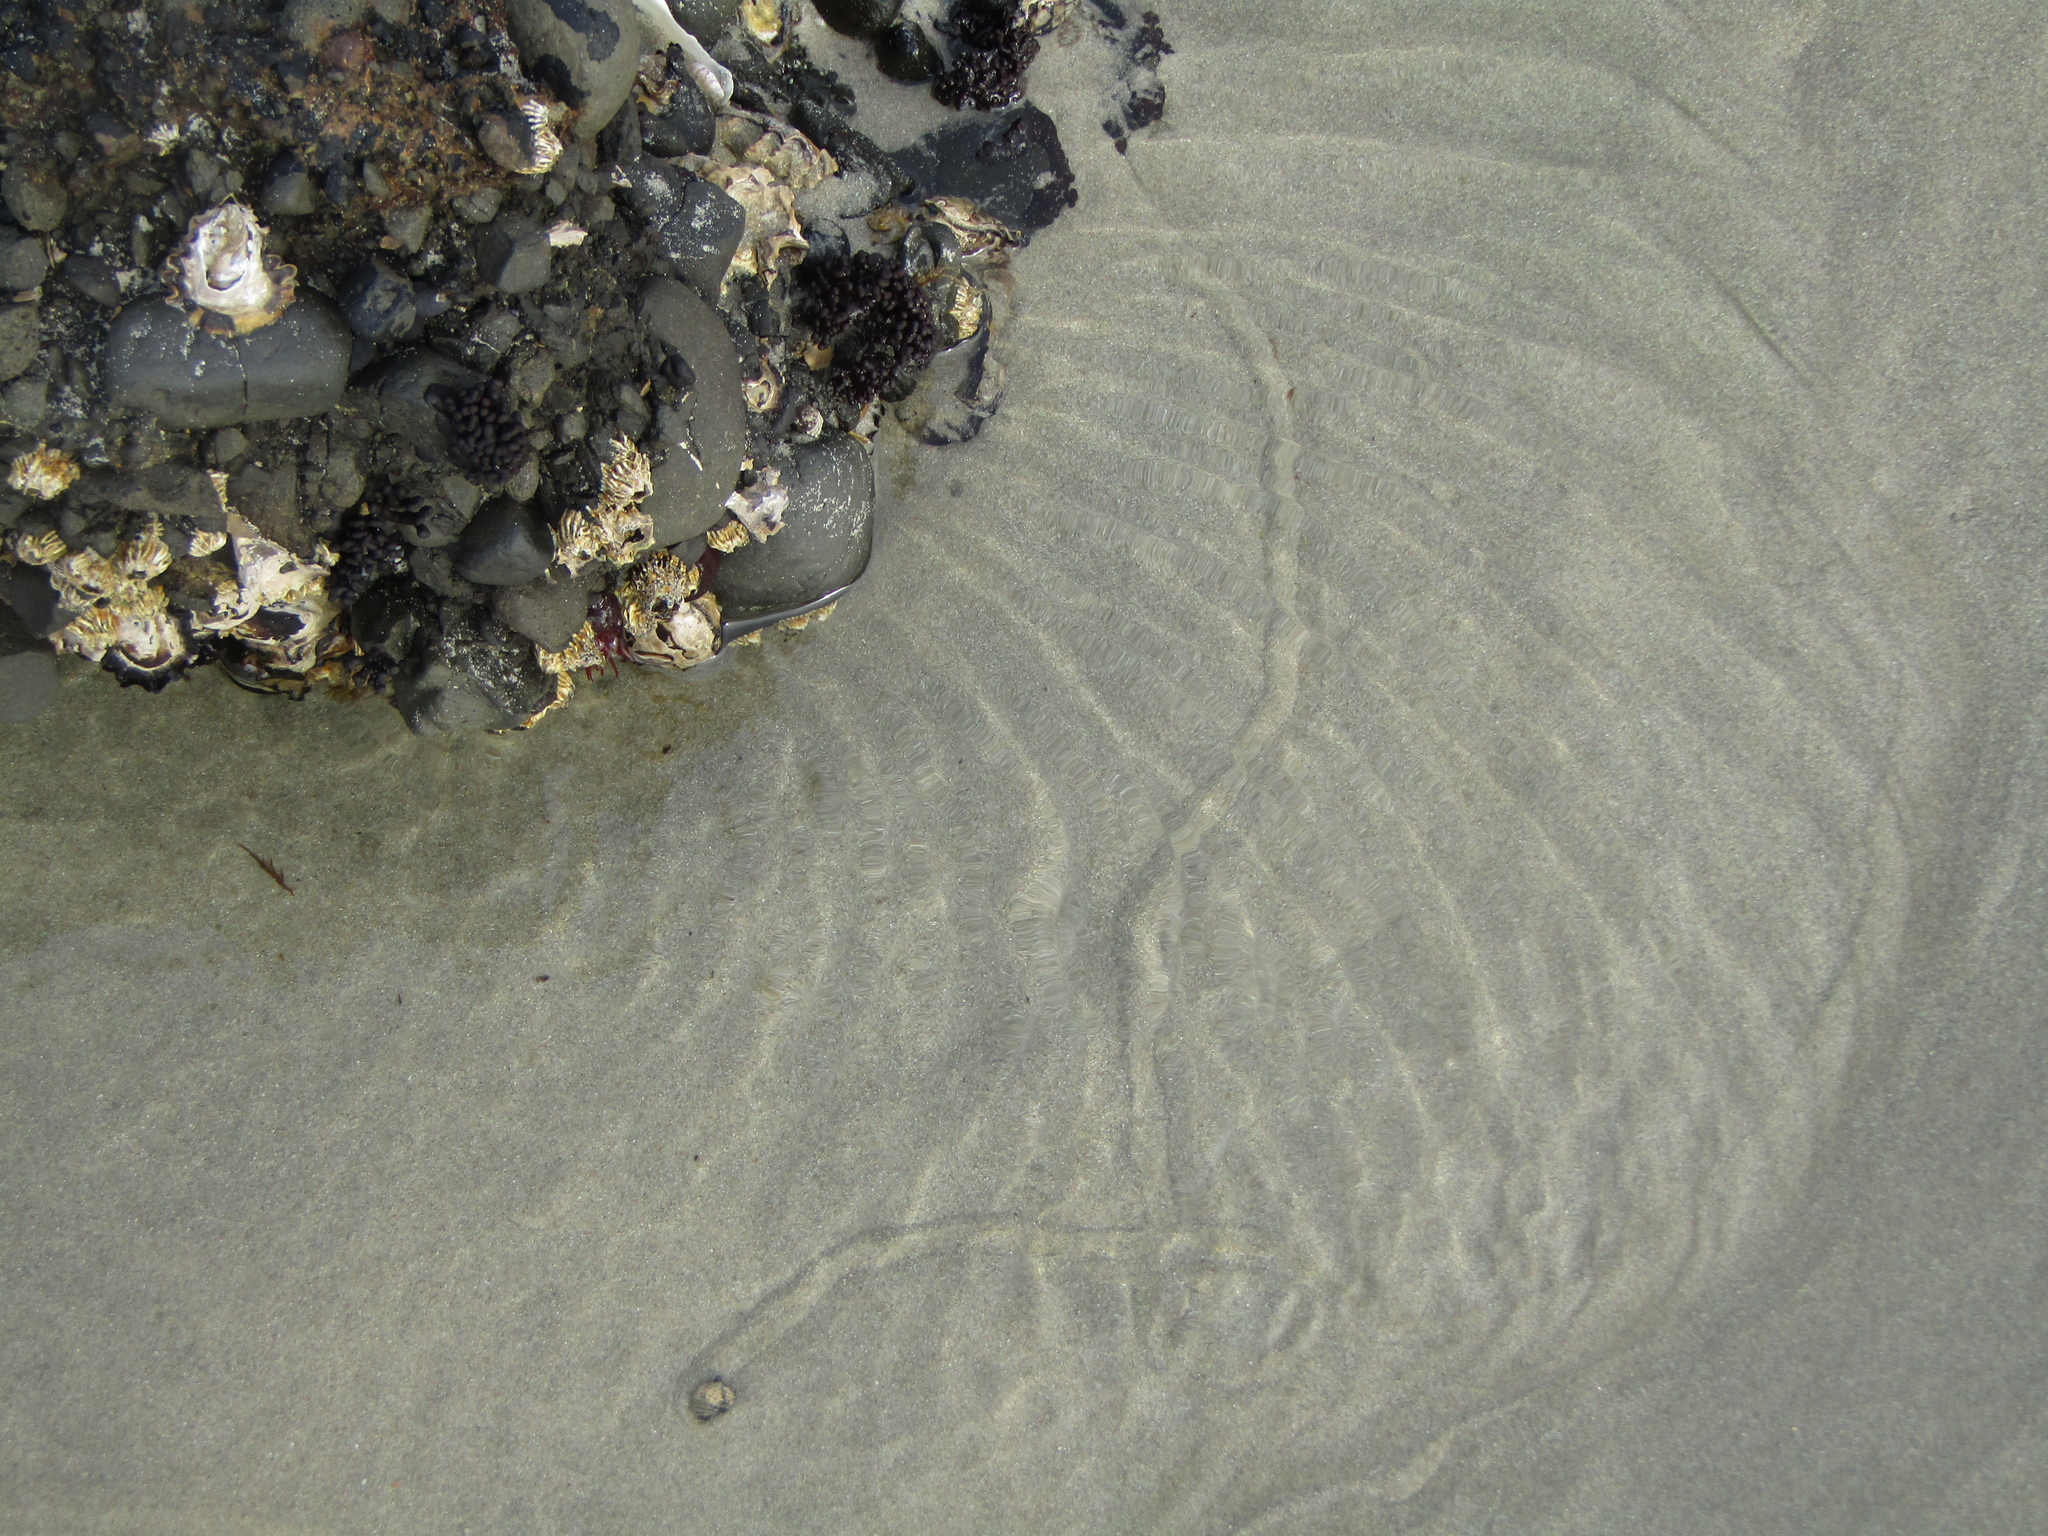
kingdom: Animalia
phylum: Mollusca
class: Gastropoda
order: Neogastropoda
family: Muricidae
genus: Haustrum
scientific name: Haustrum scobina
